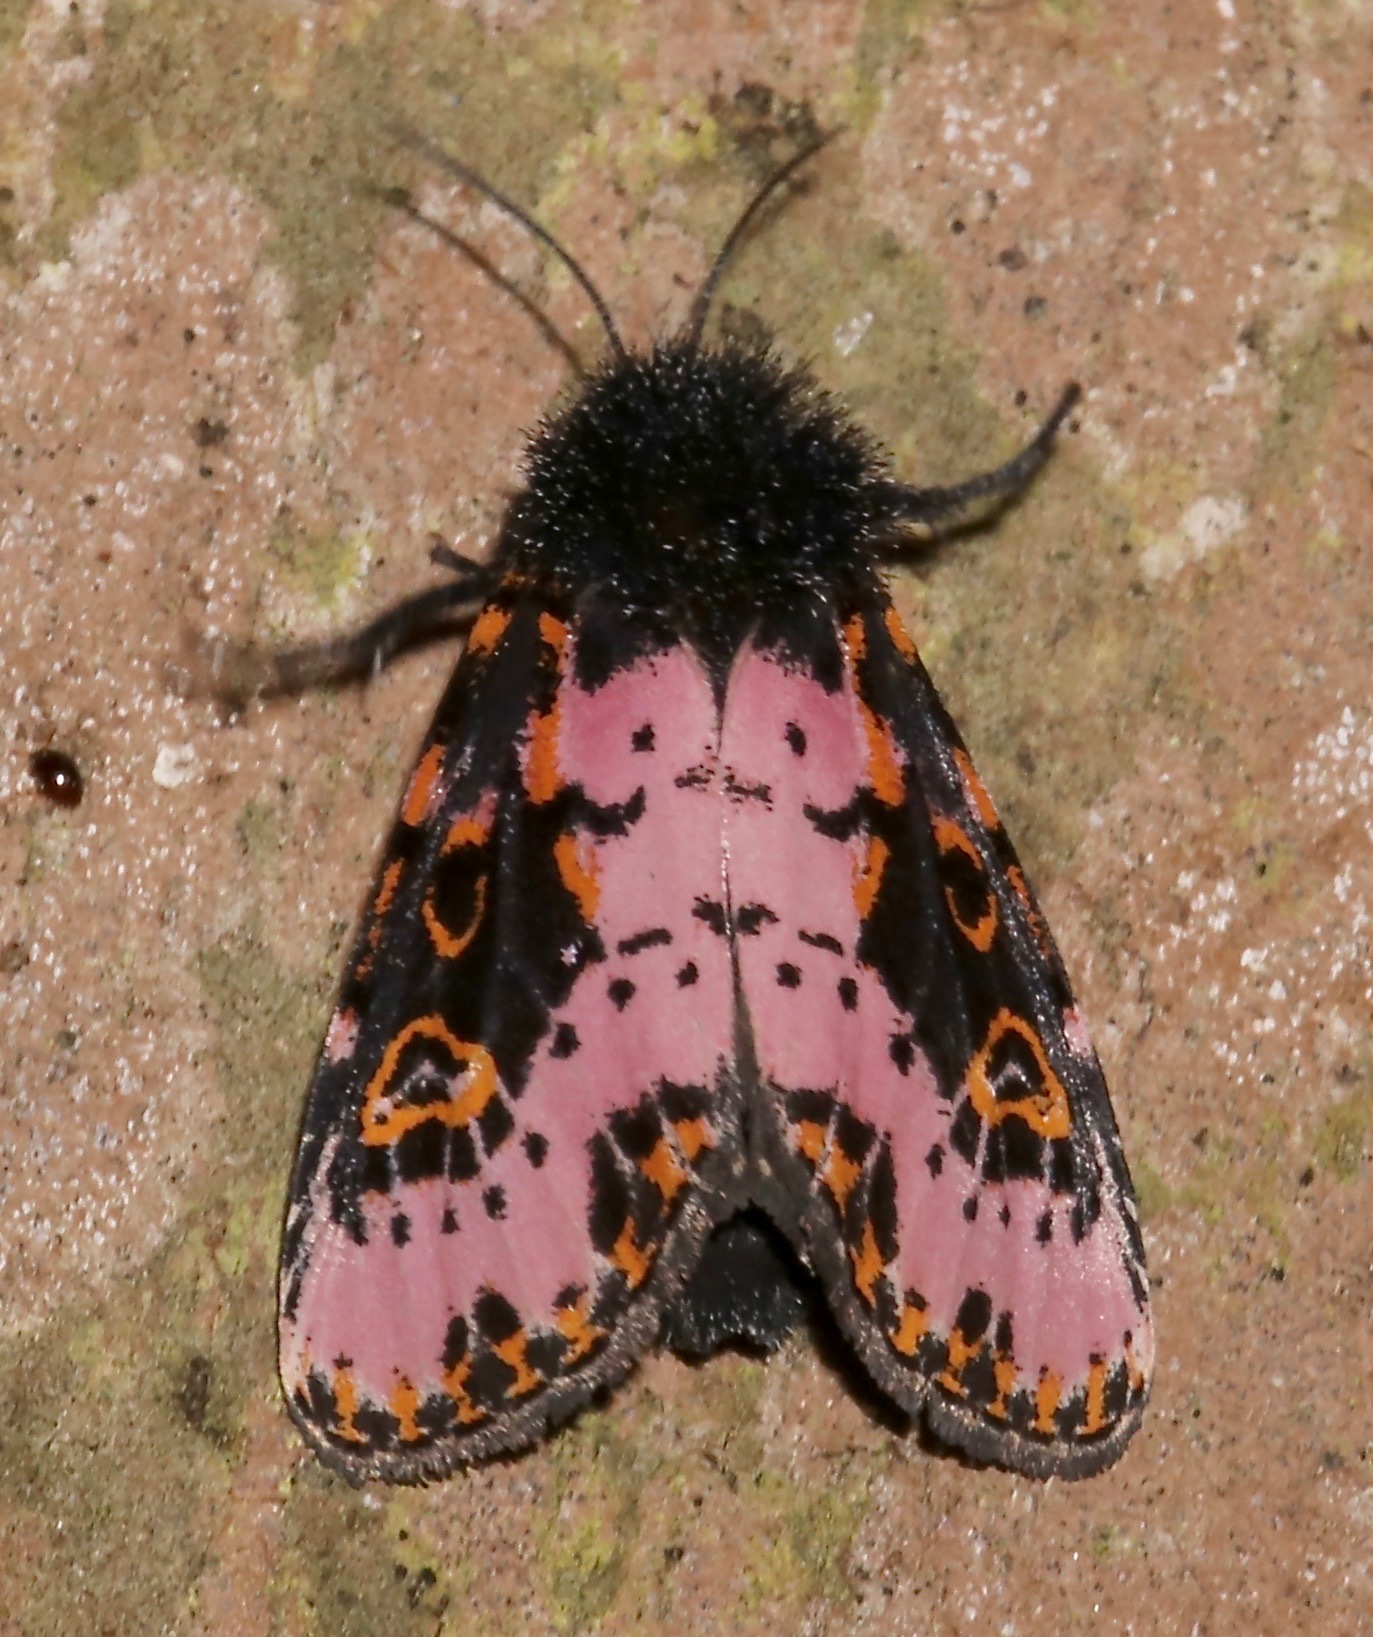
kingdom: Animalia
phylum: Arthropoda
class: Insecta
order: Lepidoptera
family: Noctuidae
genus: Xanthopastis
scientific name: Xanthopastis regnatrix
